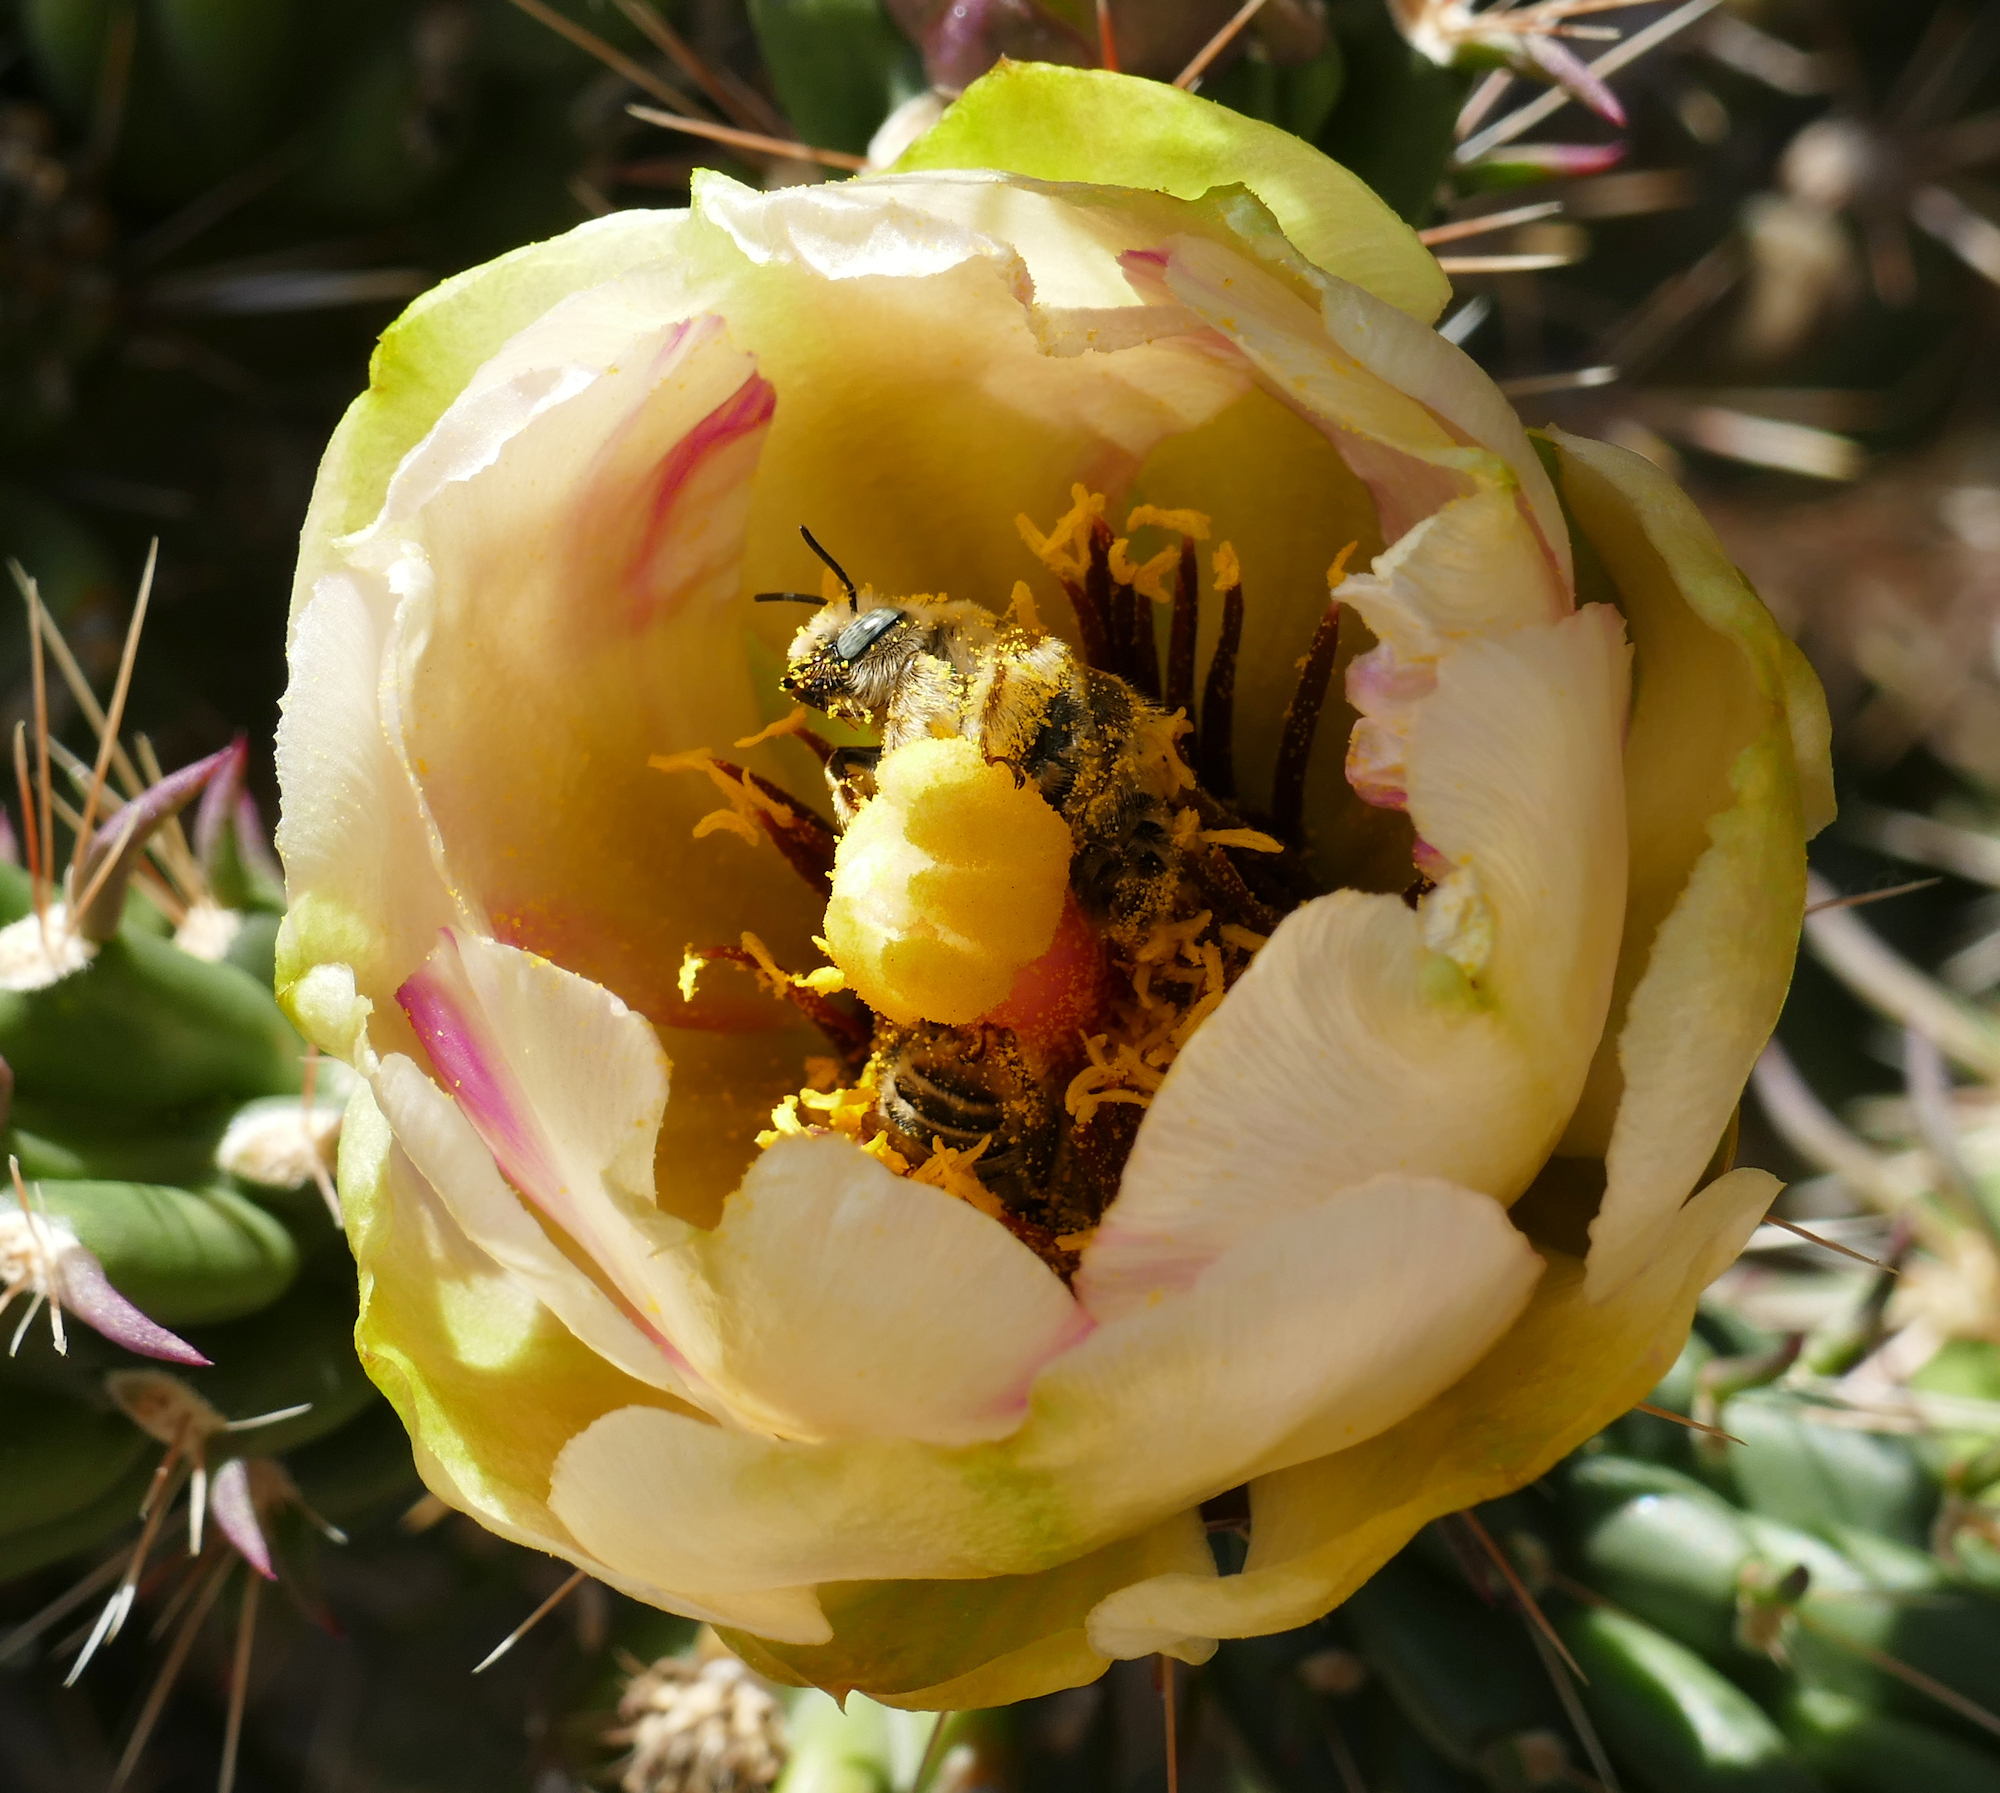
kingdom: Animalia
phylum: Arthropoda
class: Insecta
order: Hymenoptera
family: Apidae
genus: Diadasia
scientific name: Diadasia
